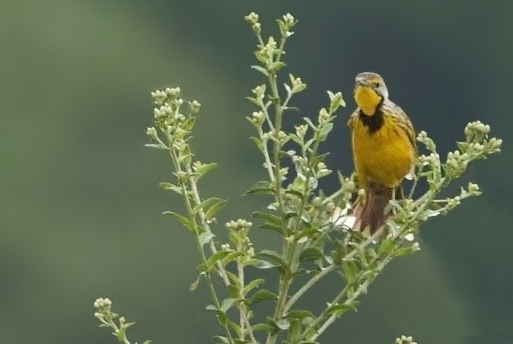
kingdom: Animalia
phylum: Chordata
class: Aves
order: Passeriformes
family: Motacillidae
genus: Macronyx
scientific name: Macronyx croceus
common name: Yellow-throated longclaw
